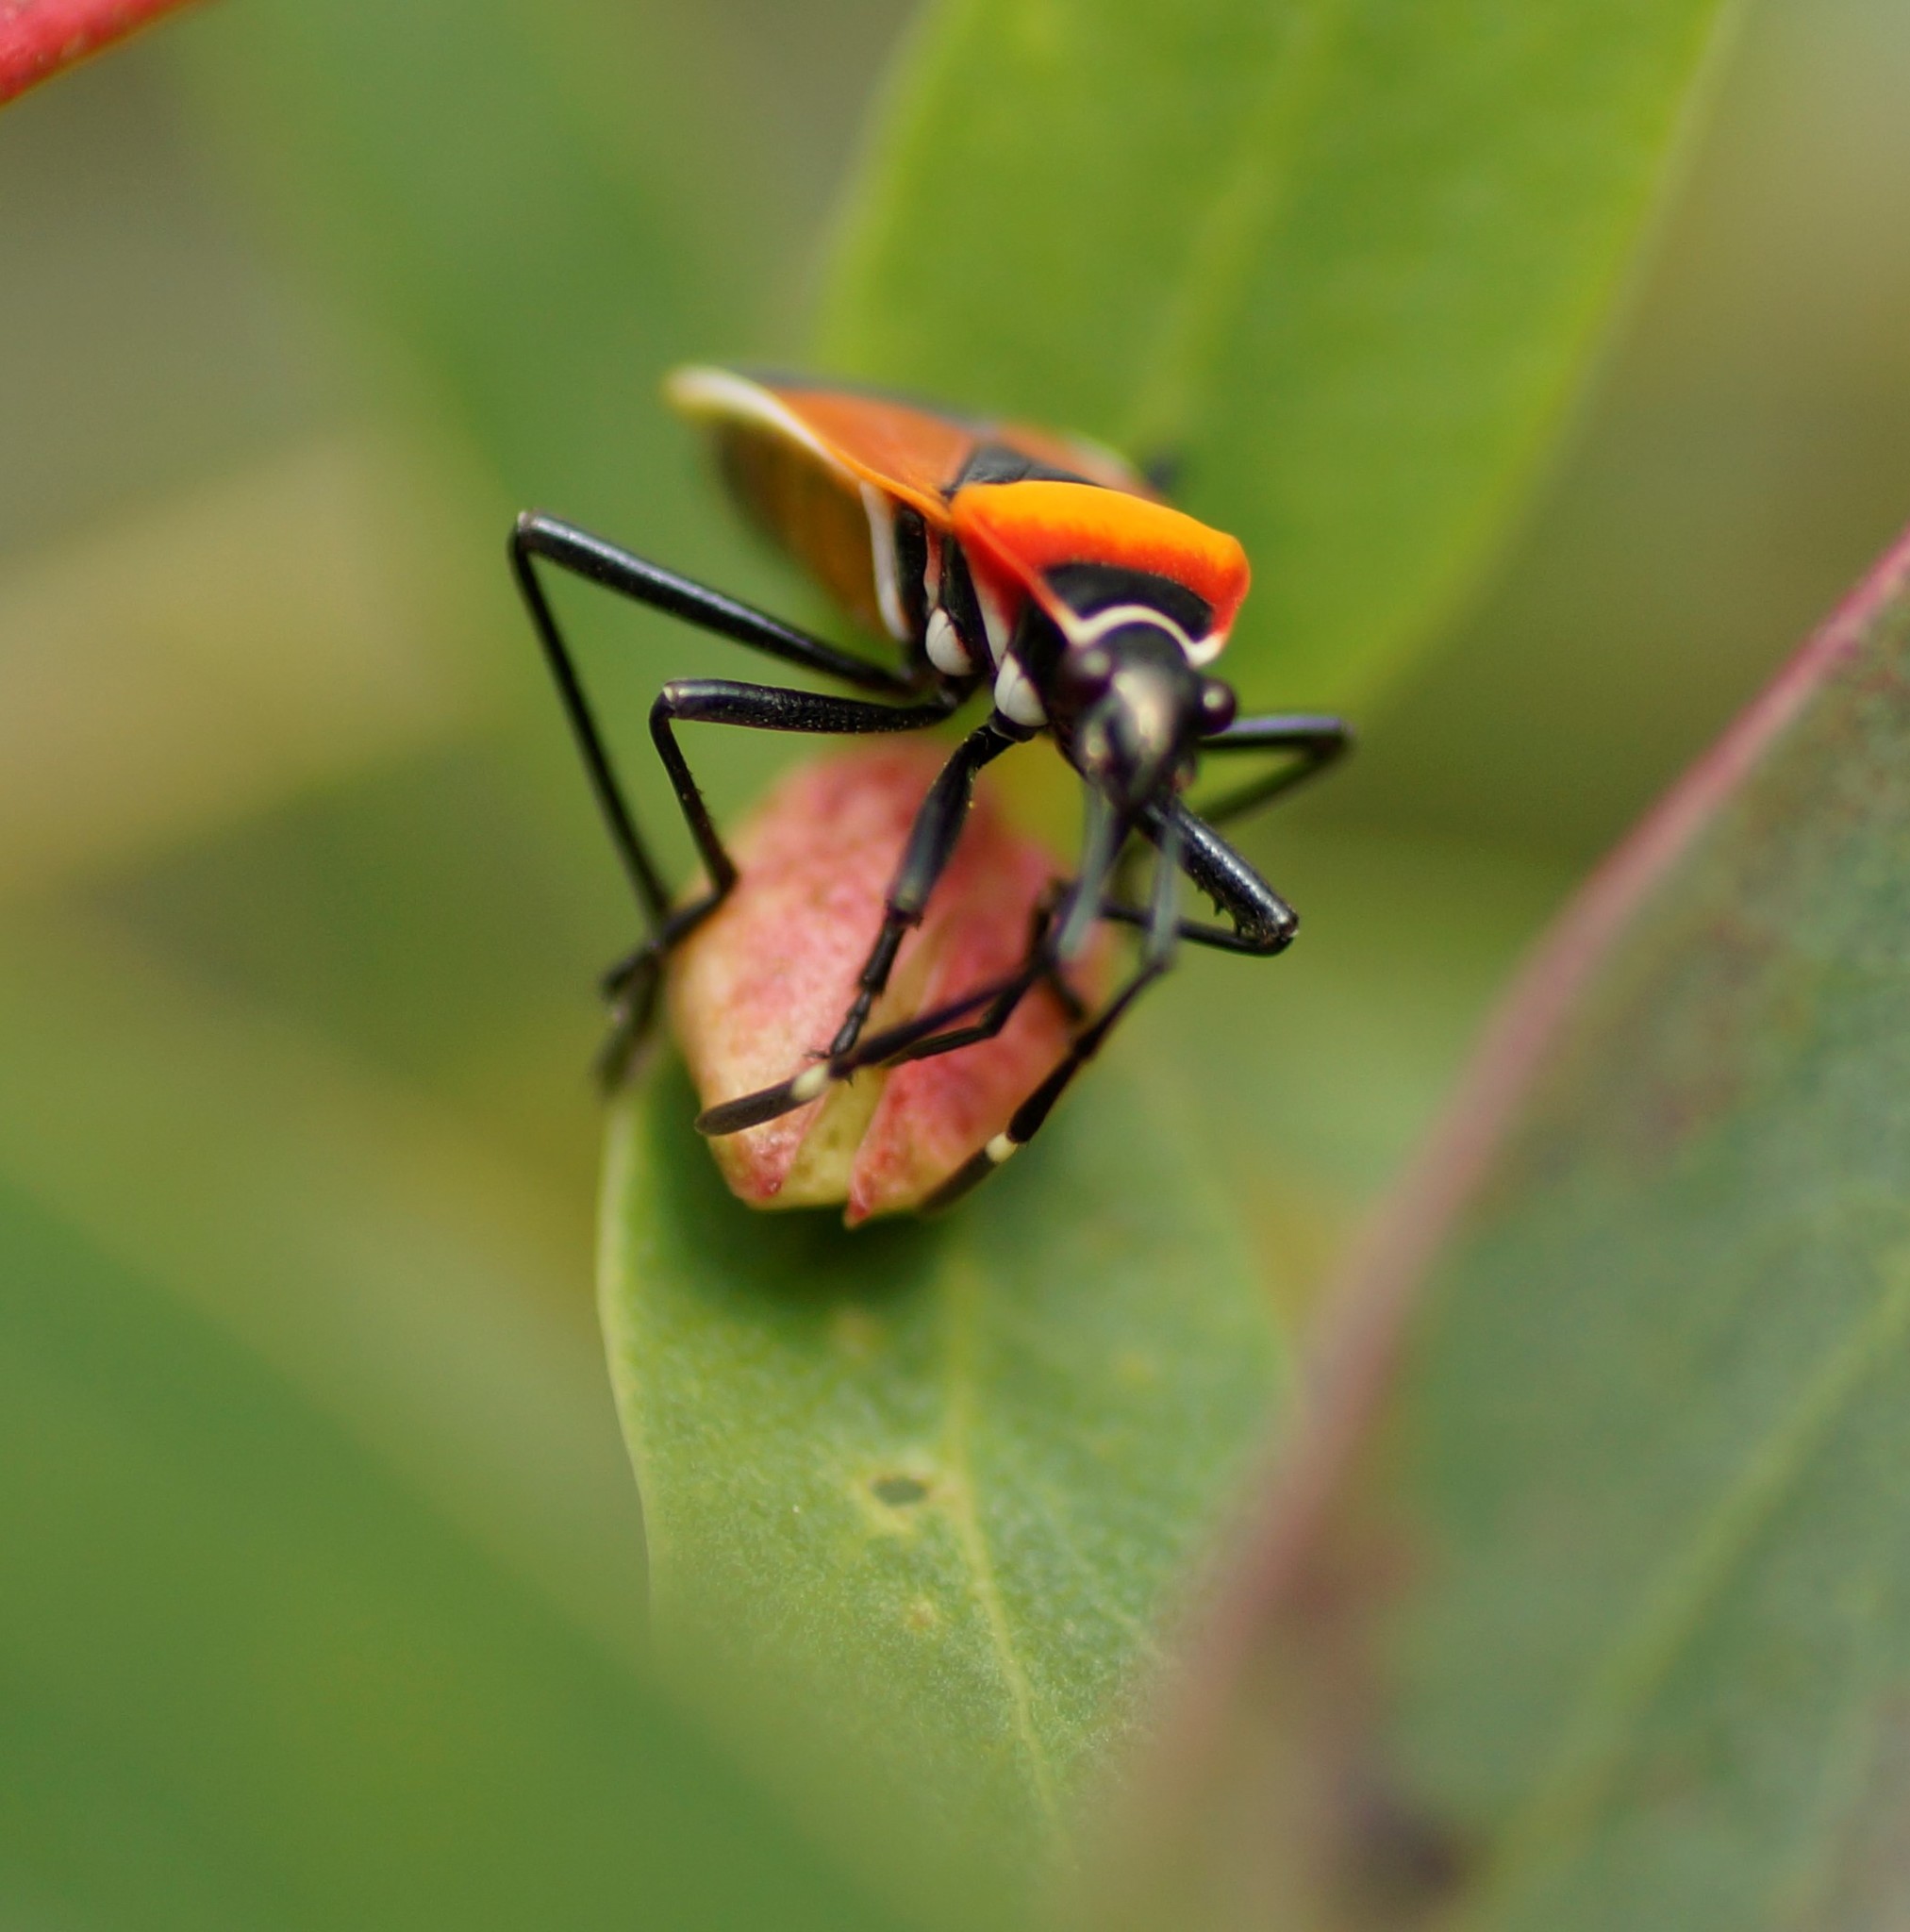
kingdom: Animalia
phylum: Arthropoda
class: Insecta
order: Hemiptera
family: Pyrrhocoridae
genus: Dindymus
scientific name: Dindymus
